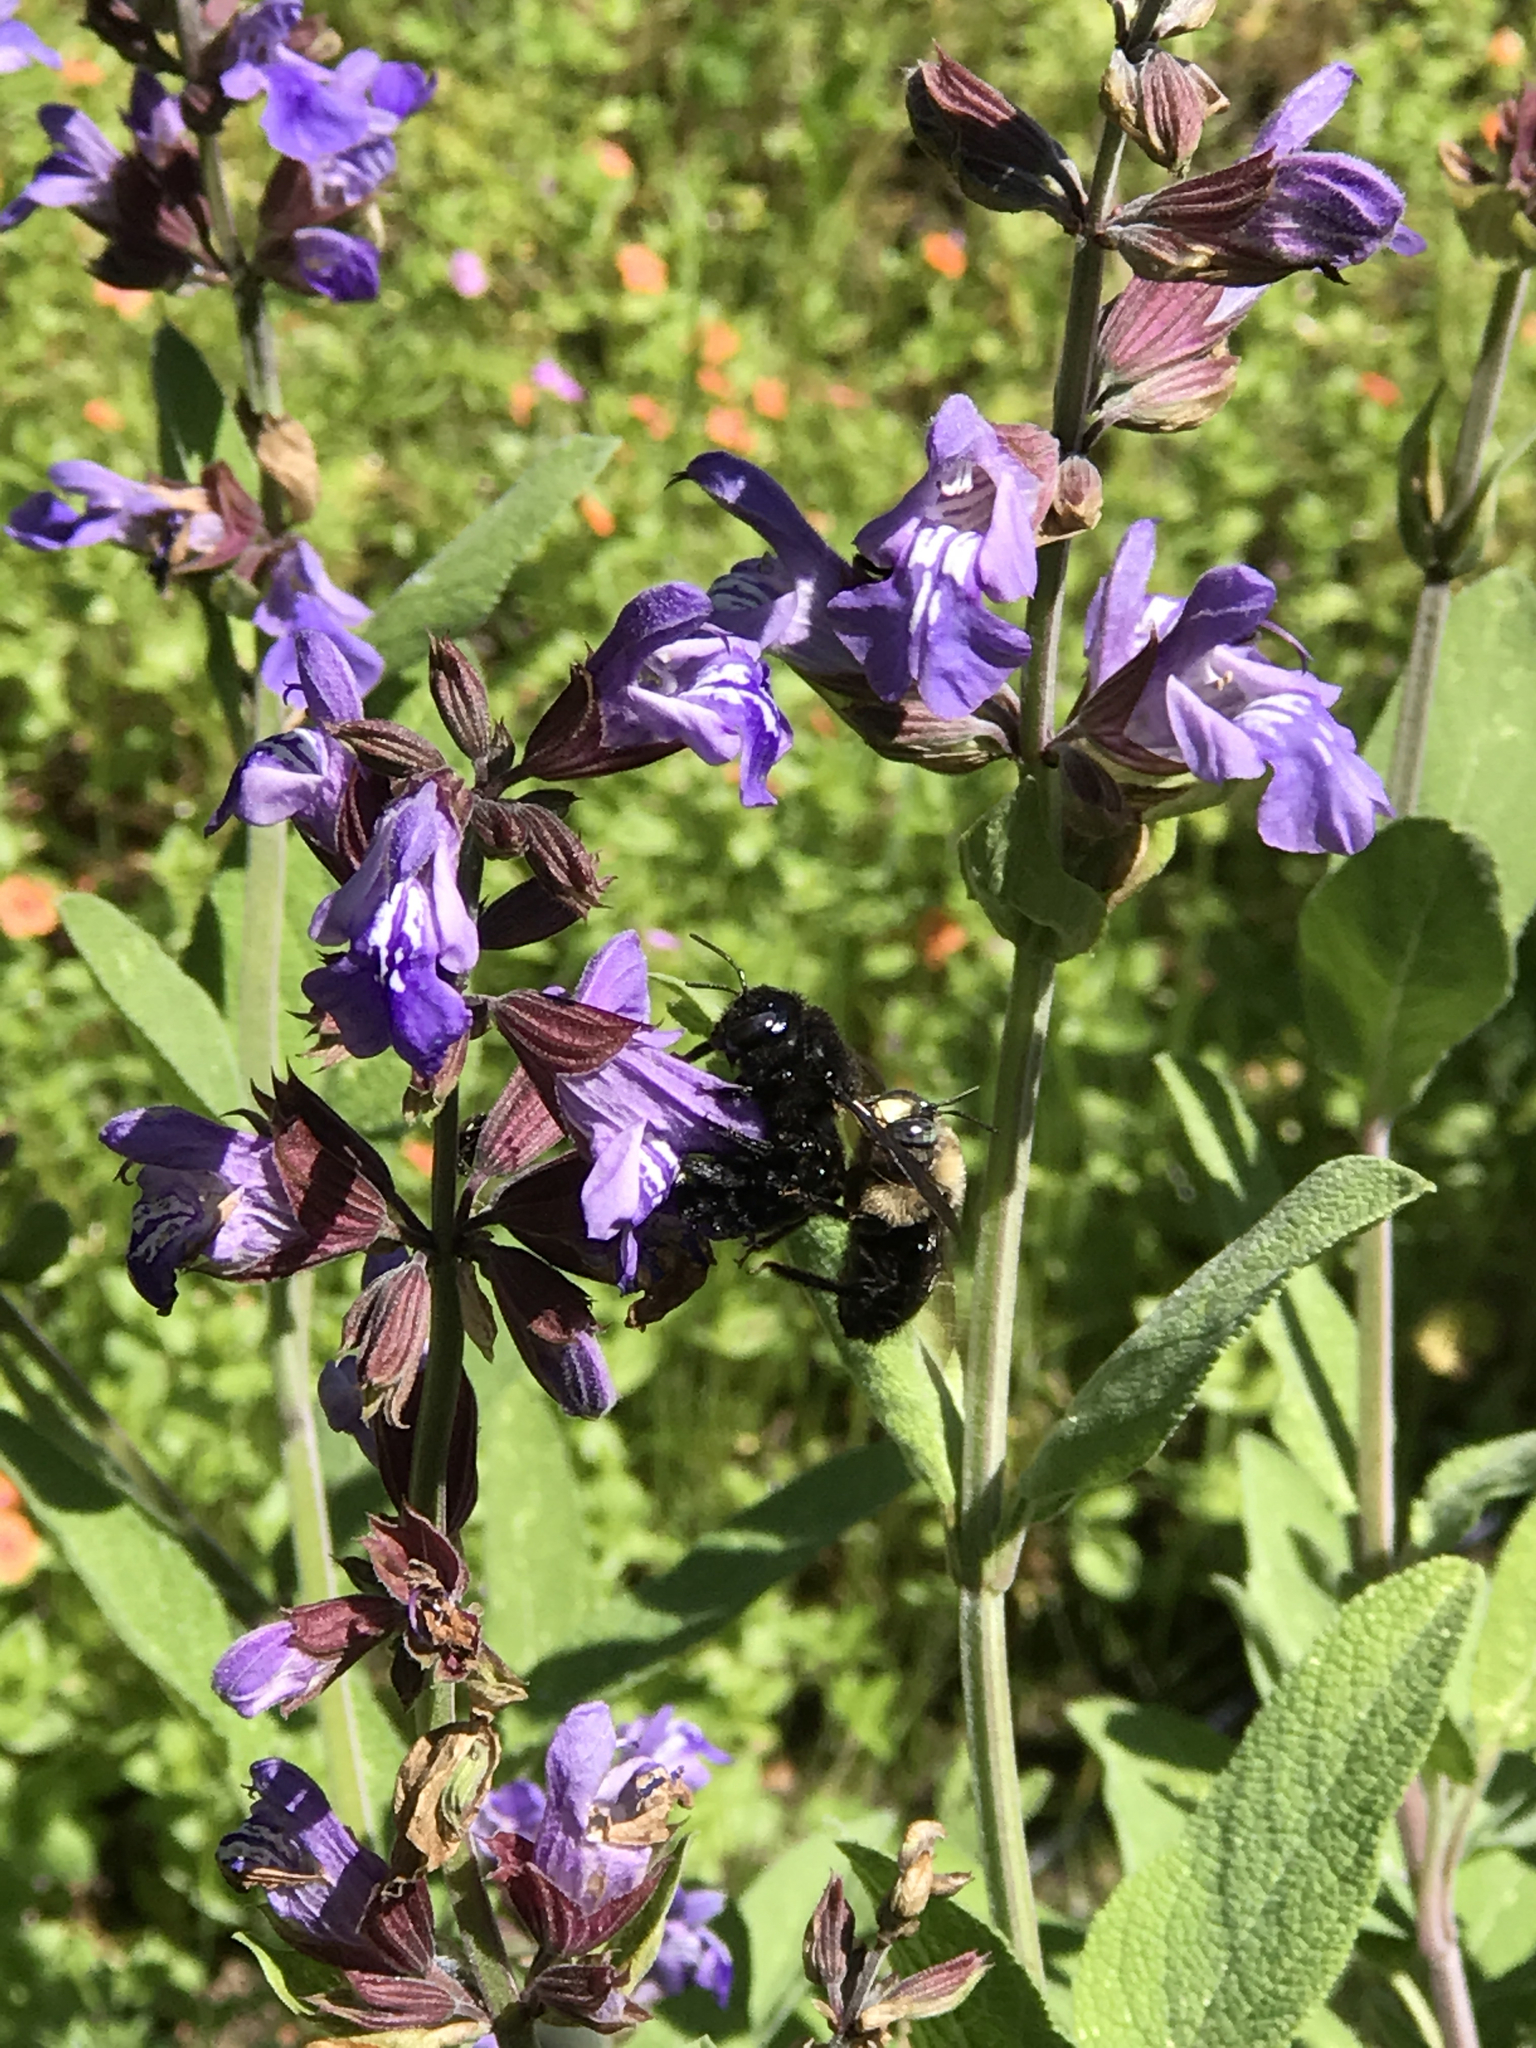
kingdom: Animalia
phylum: Arthropoda
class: Insecta
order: Hymenoptera
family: Apidae
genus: Xylocopa
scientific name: Xylocopa tabaniformis
